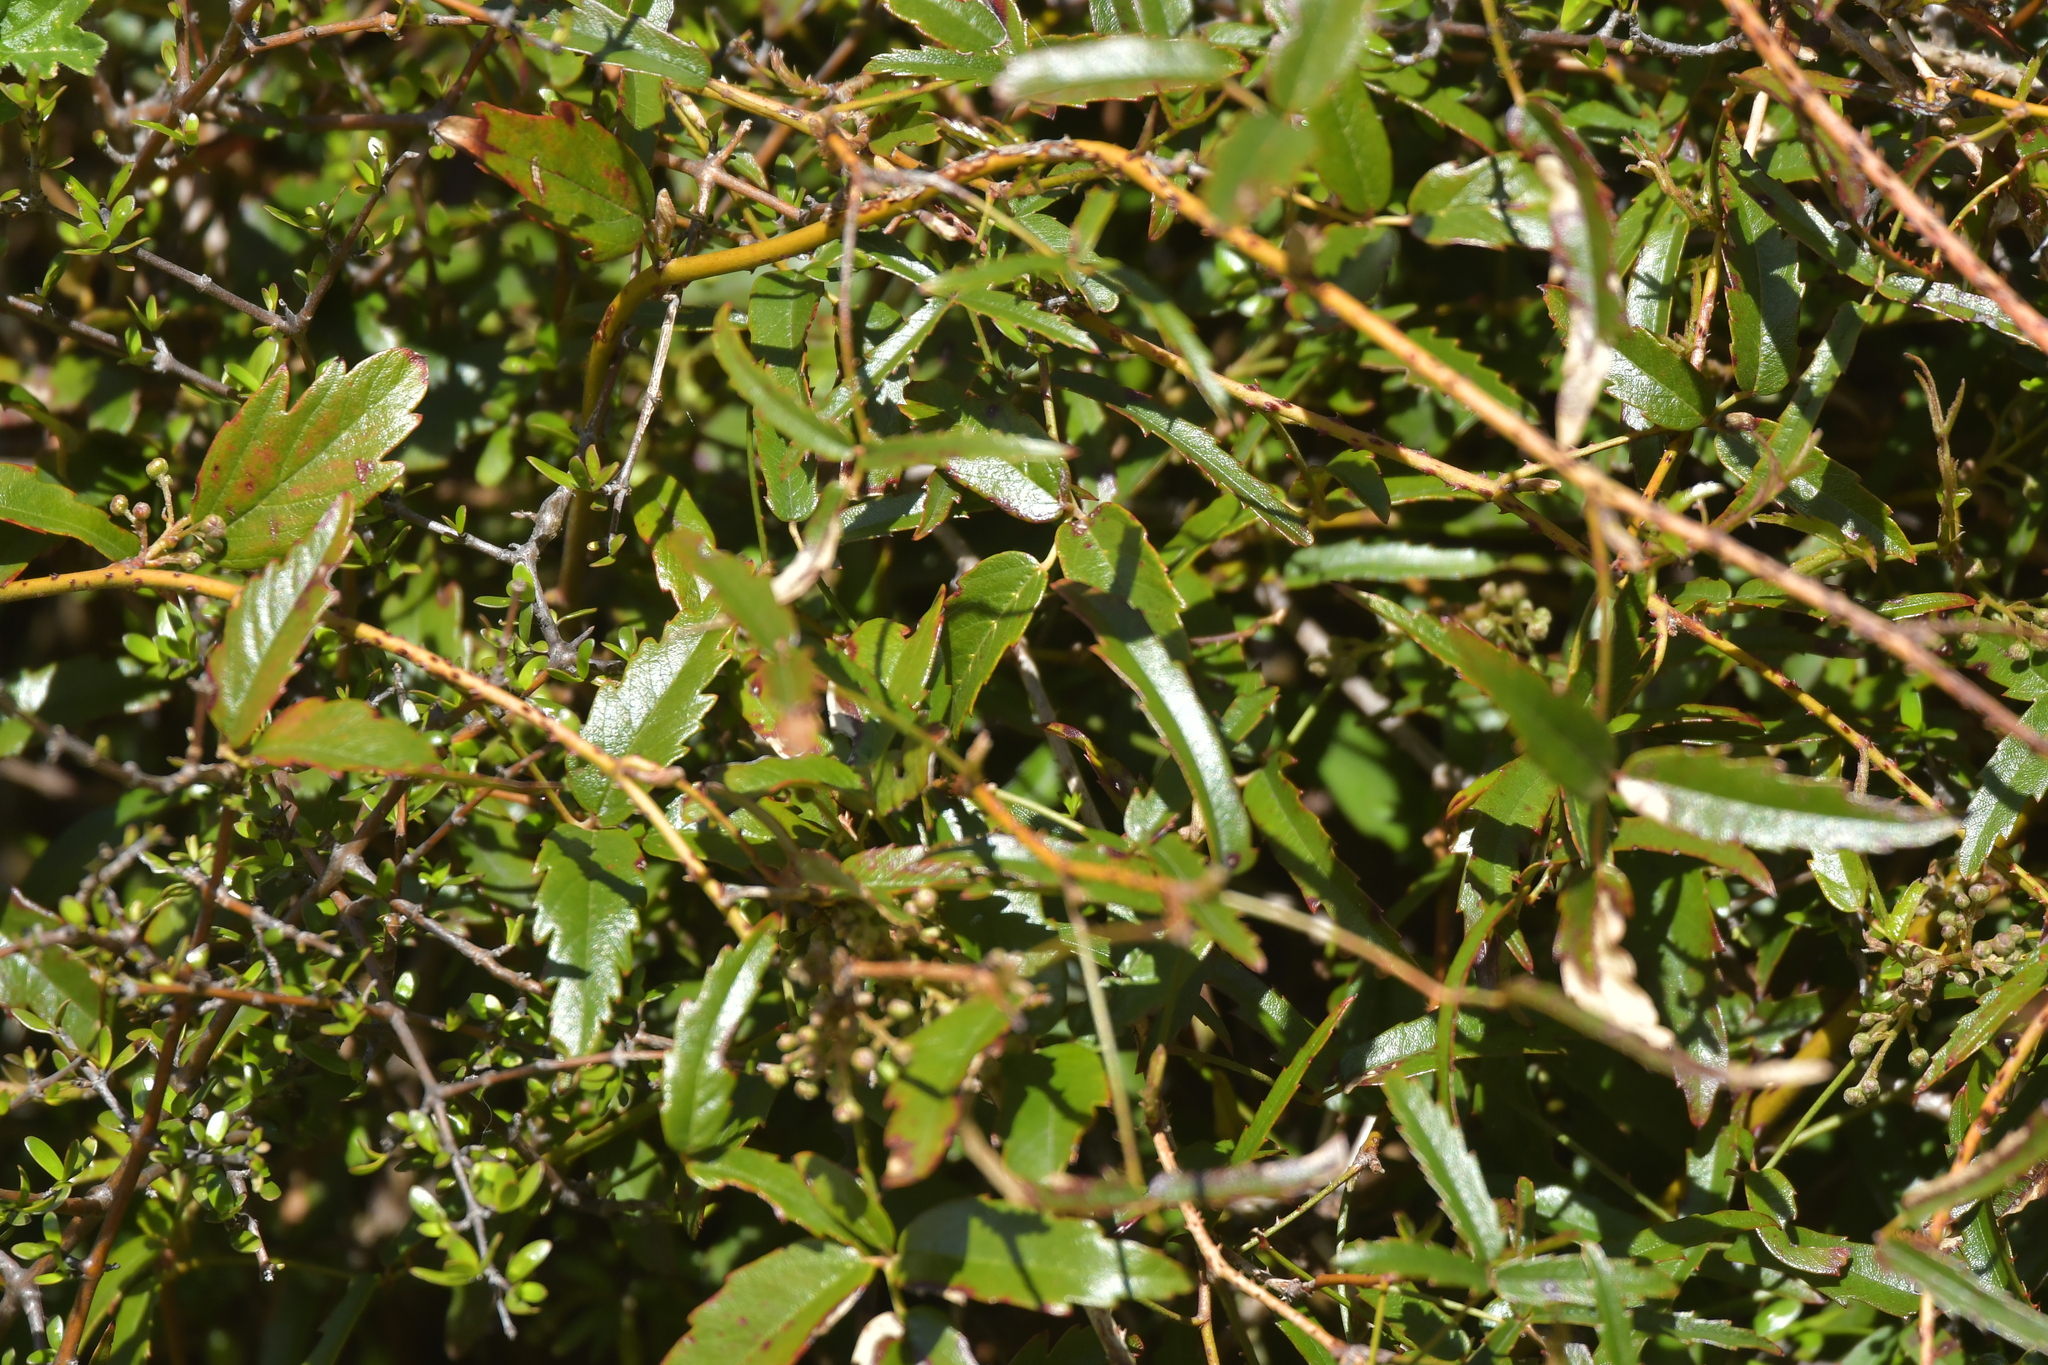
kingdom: Plantae
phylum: Tracheophyta
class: Magnoliopsida
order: Rosales
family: Rosaceae
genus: Rubus
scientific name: Rubus schmidelioides
